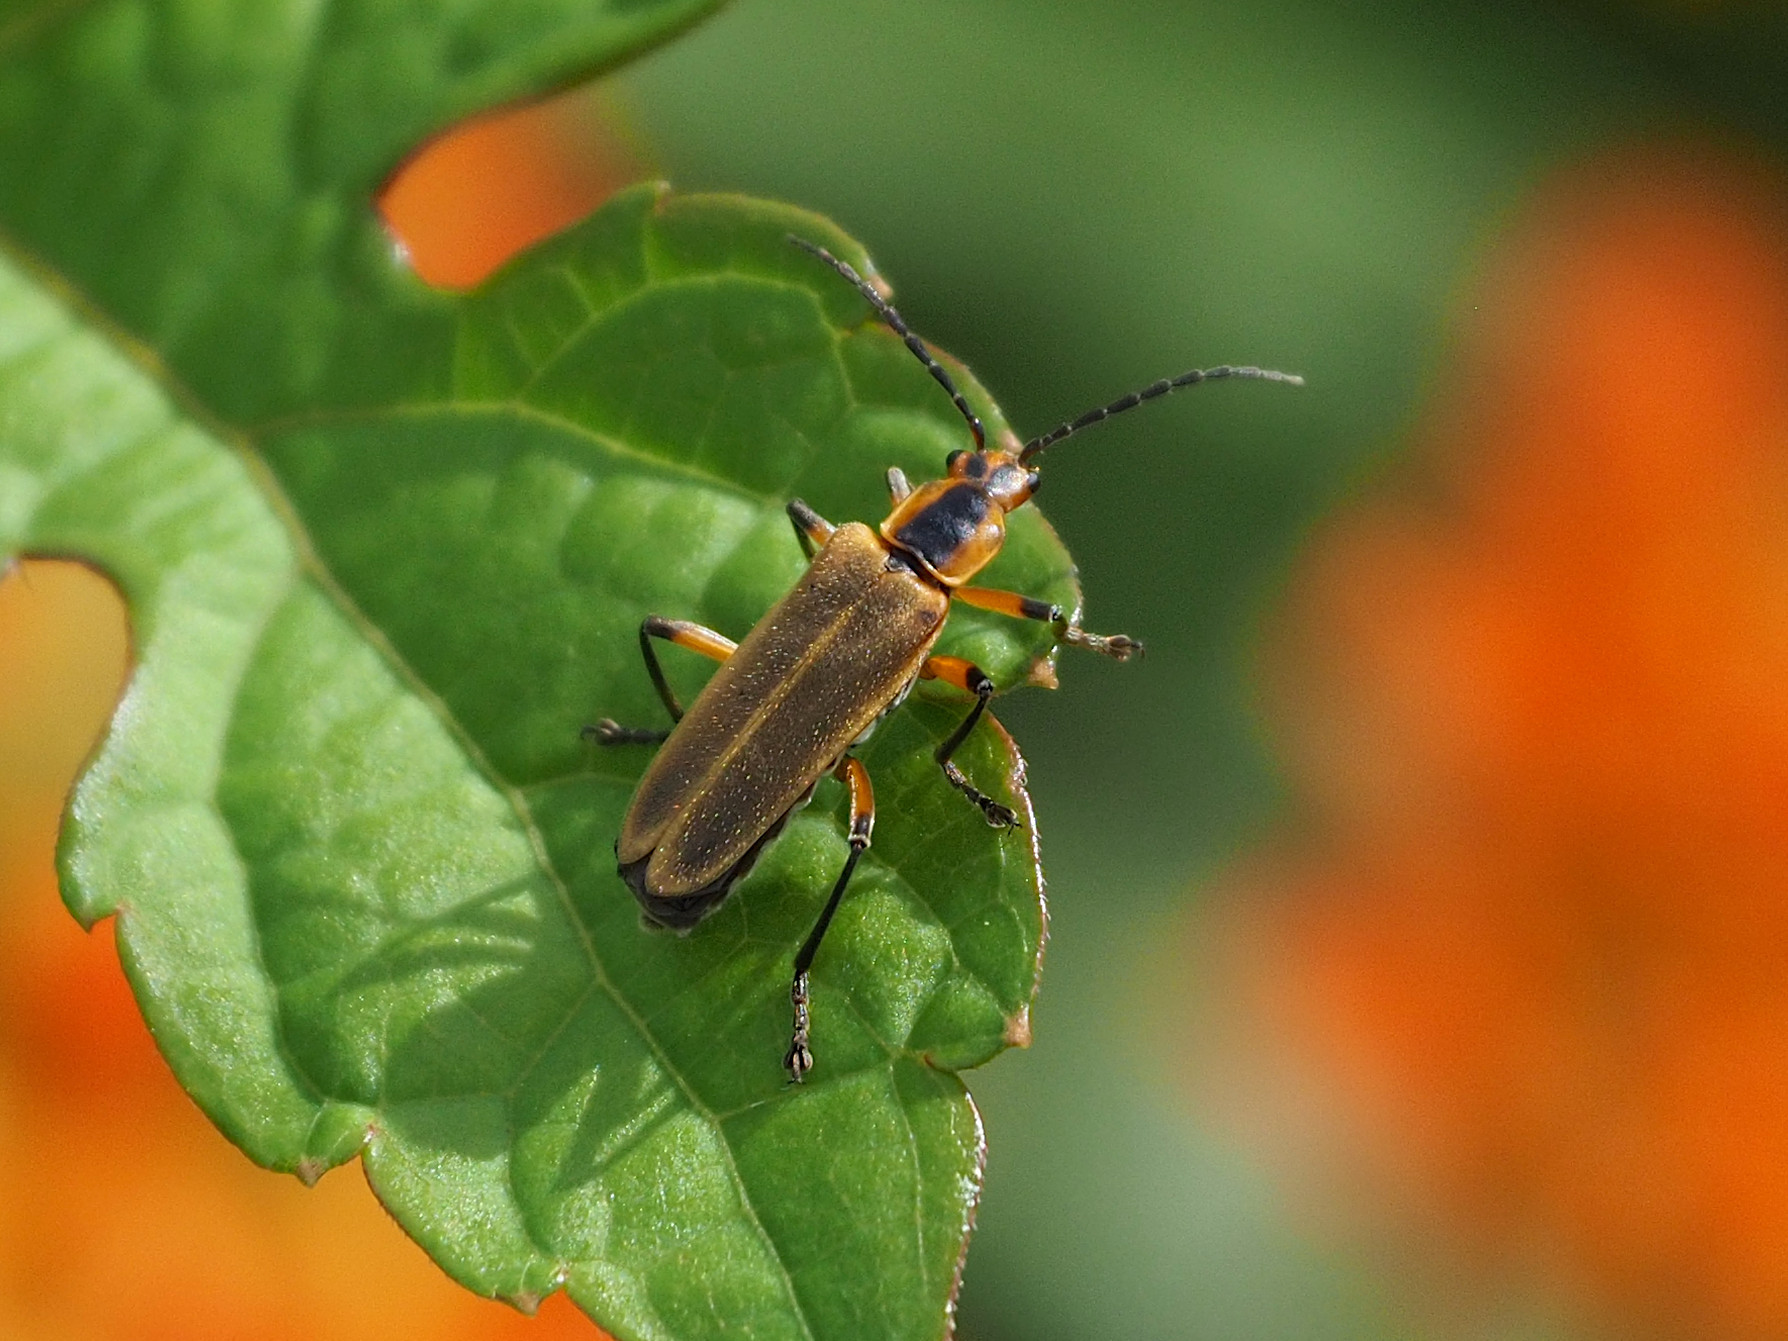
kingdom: Animalia
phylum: Arthropoda
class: Insecta
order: Coleoptera
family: Cantharidae
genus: Chauliognathus
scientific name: Chauliognathus marginatus
